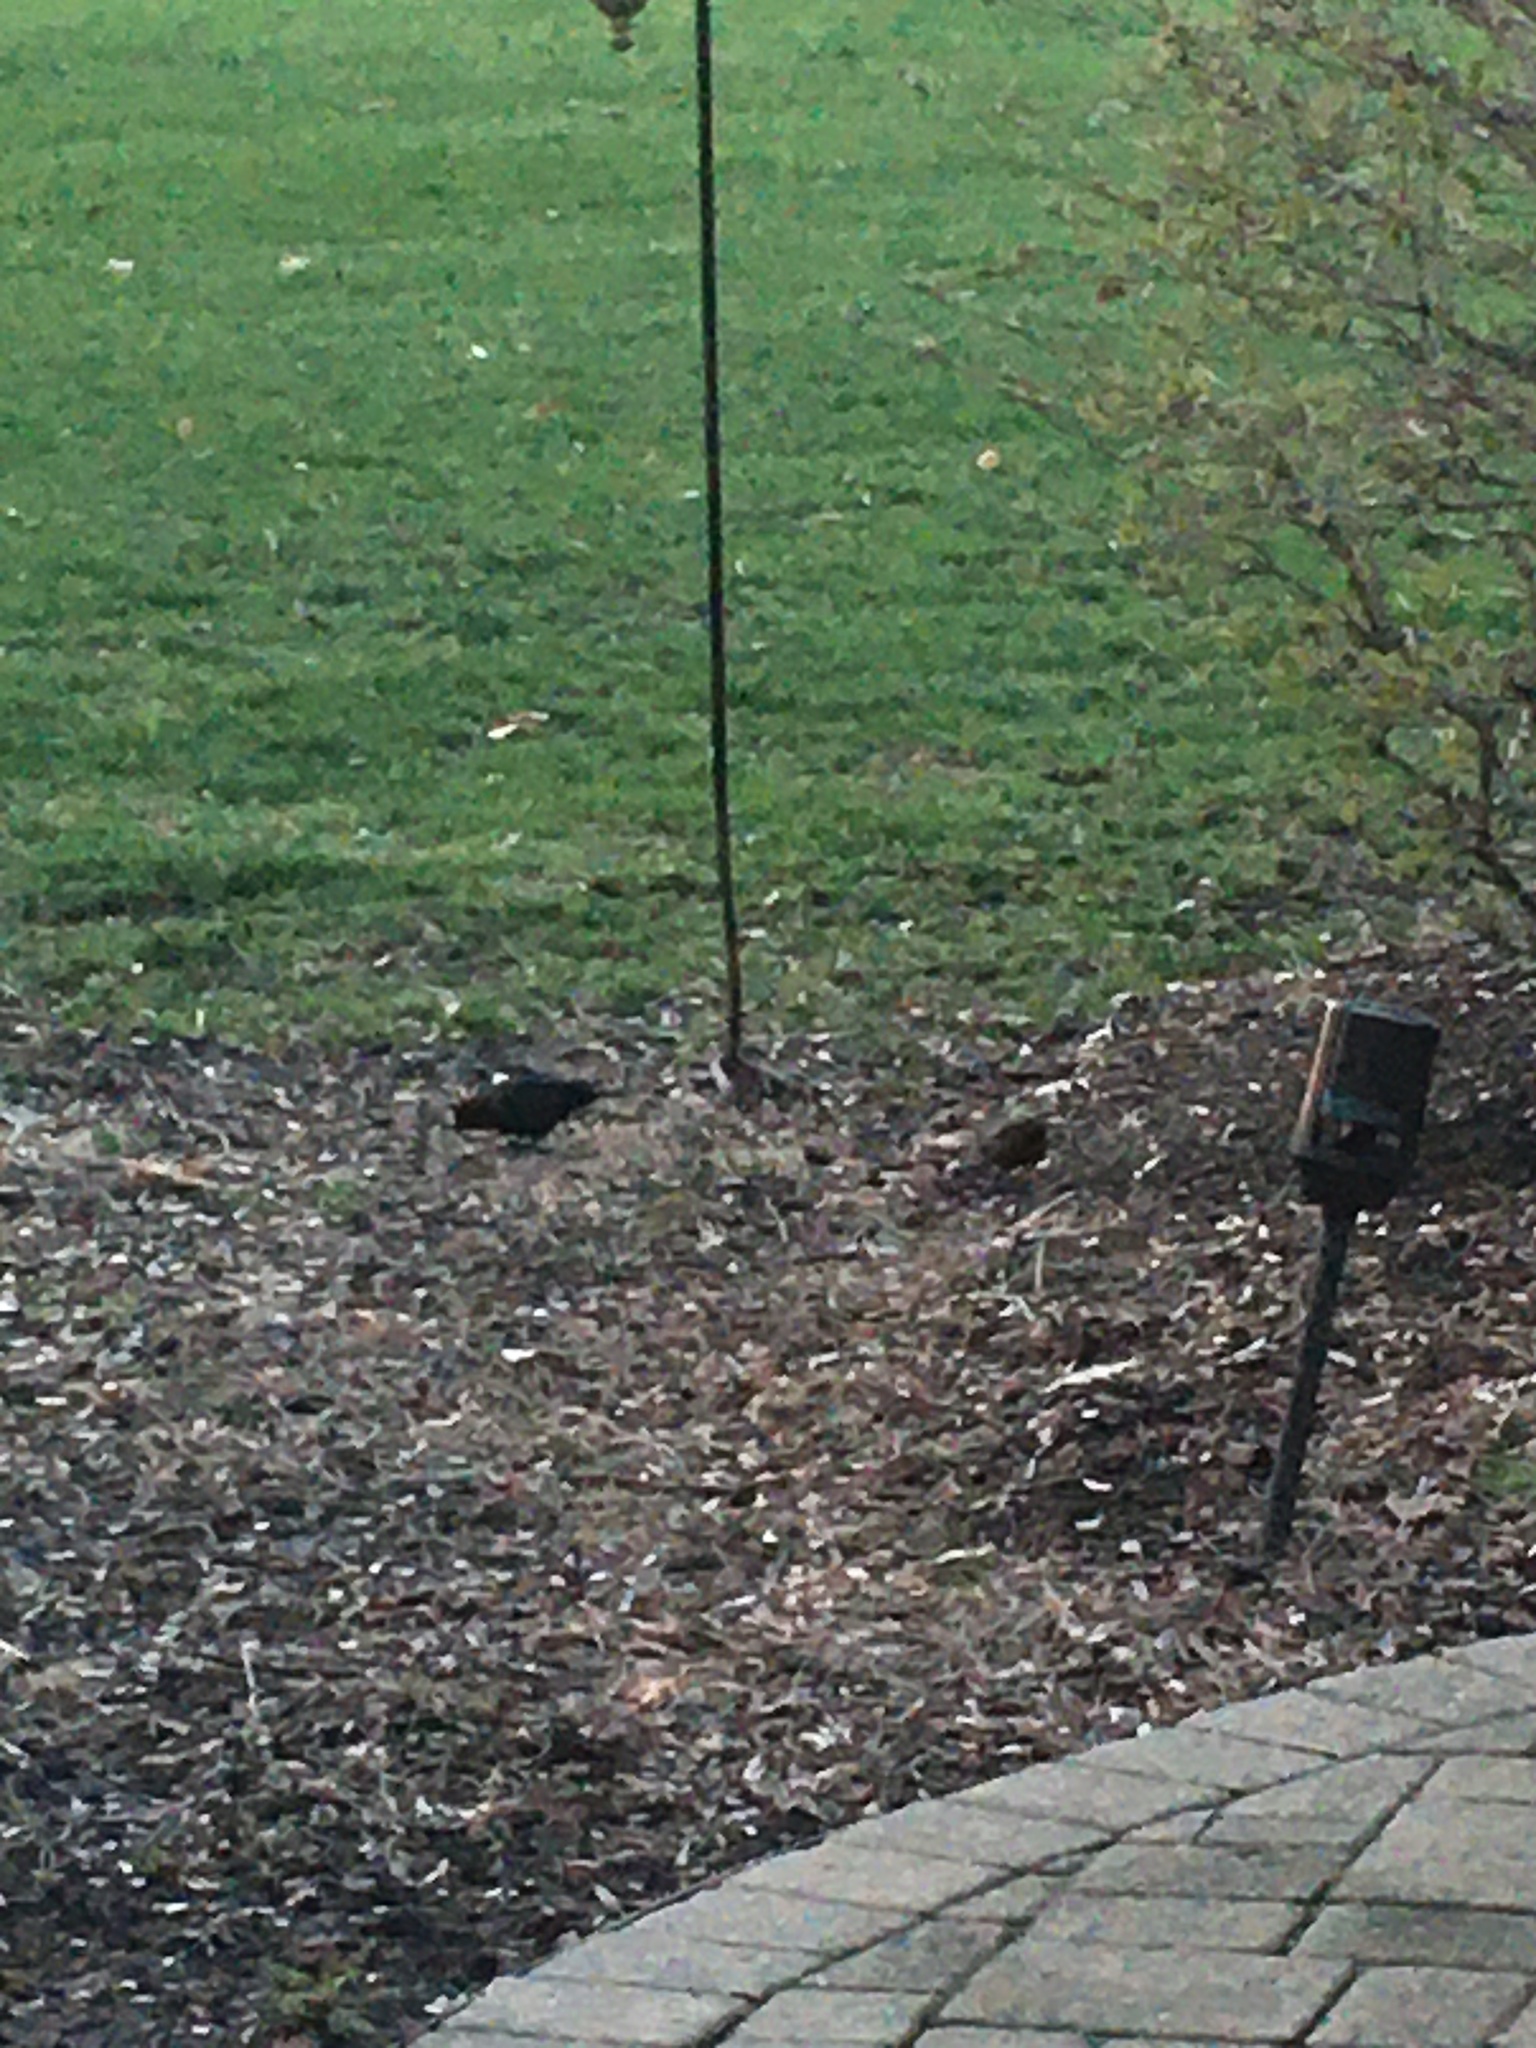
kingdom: Animalia
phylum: Chordata
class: Aves
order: Passeriformes
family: Icteridae
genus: Molothrus
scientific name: Molothrus ater
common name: Brown-headed cowbird
